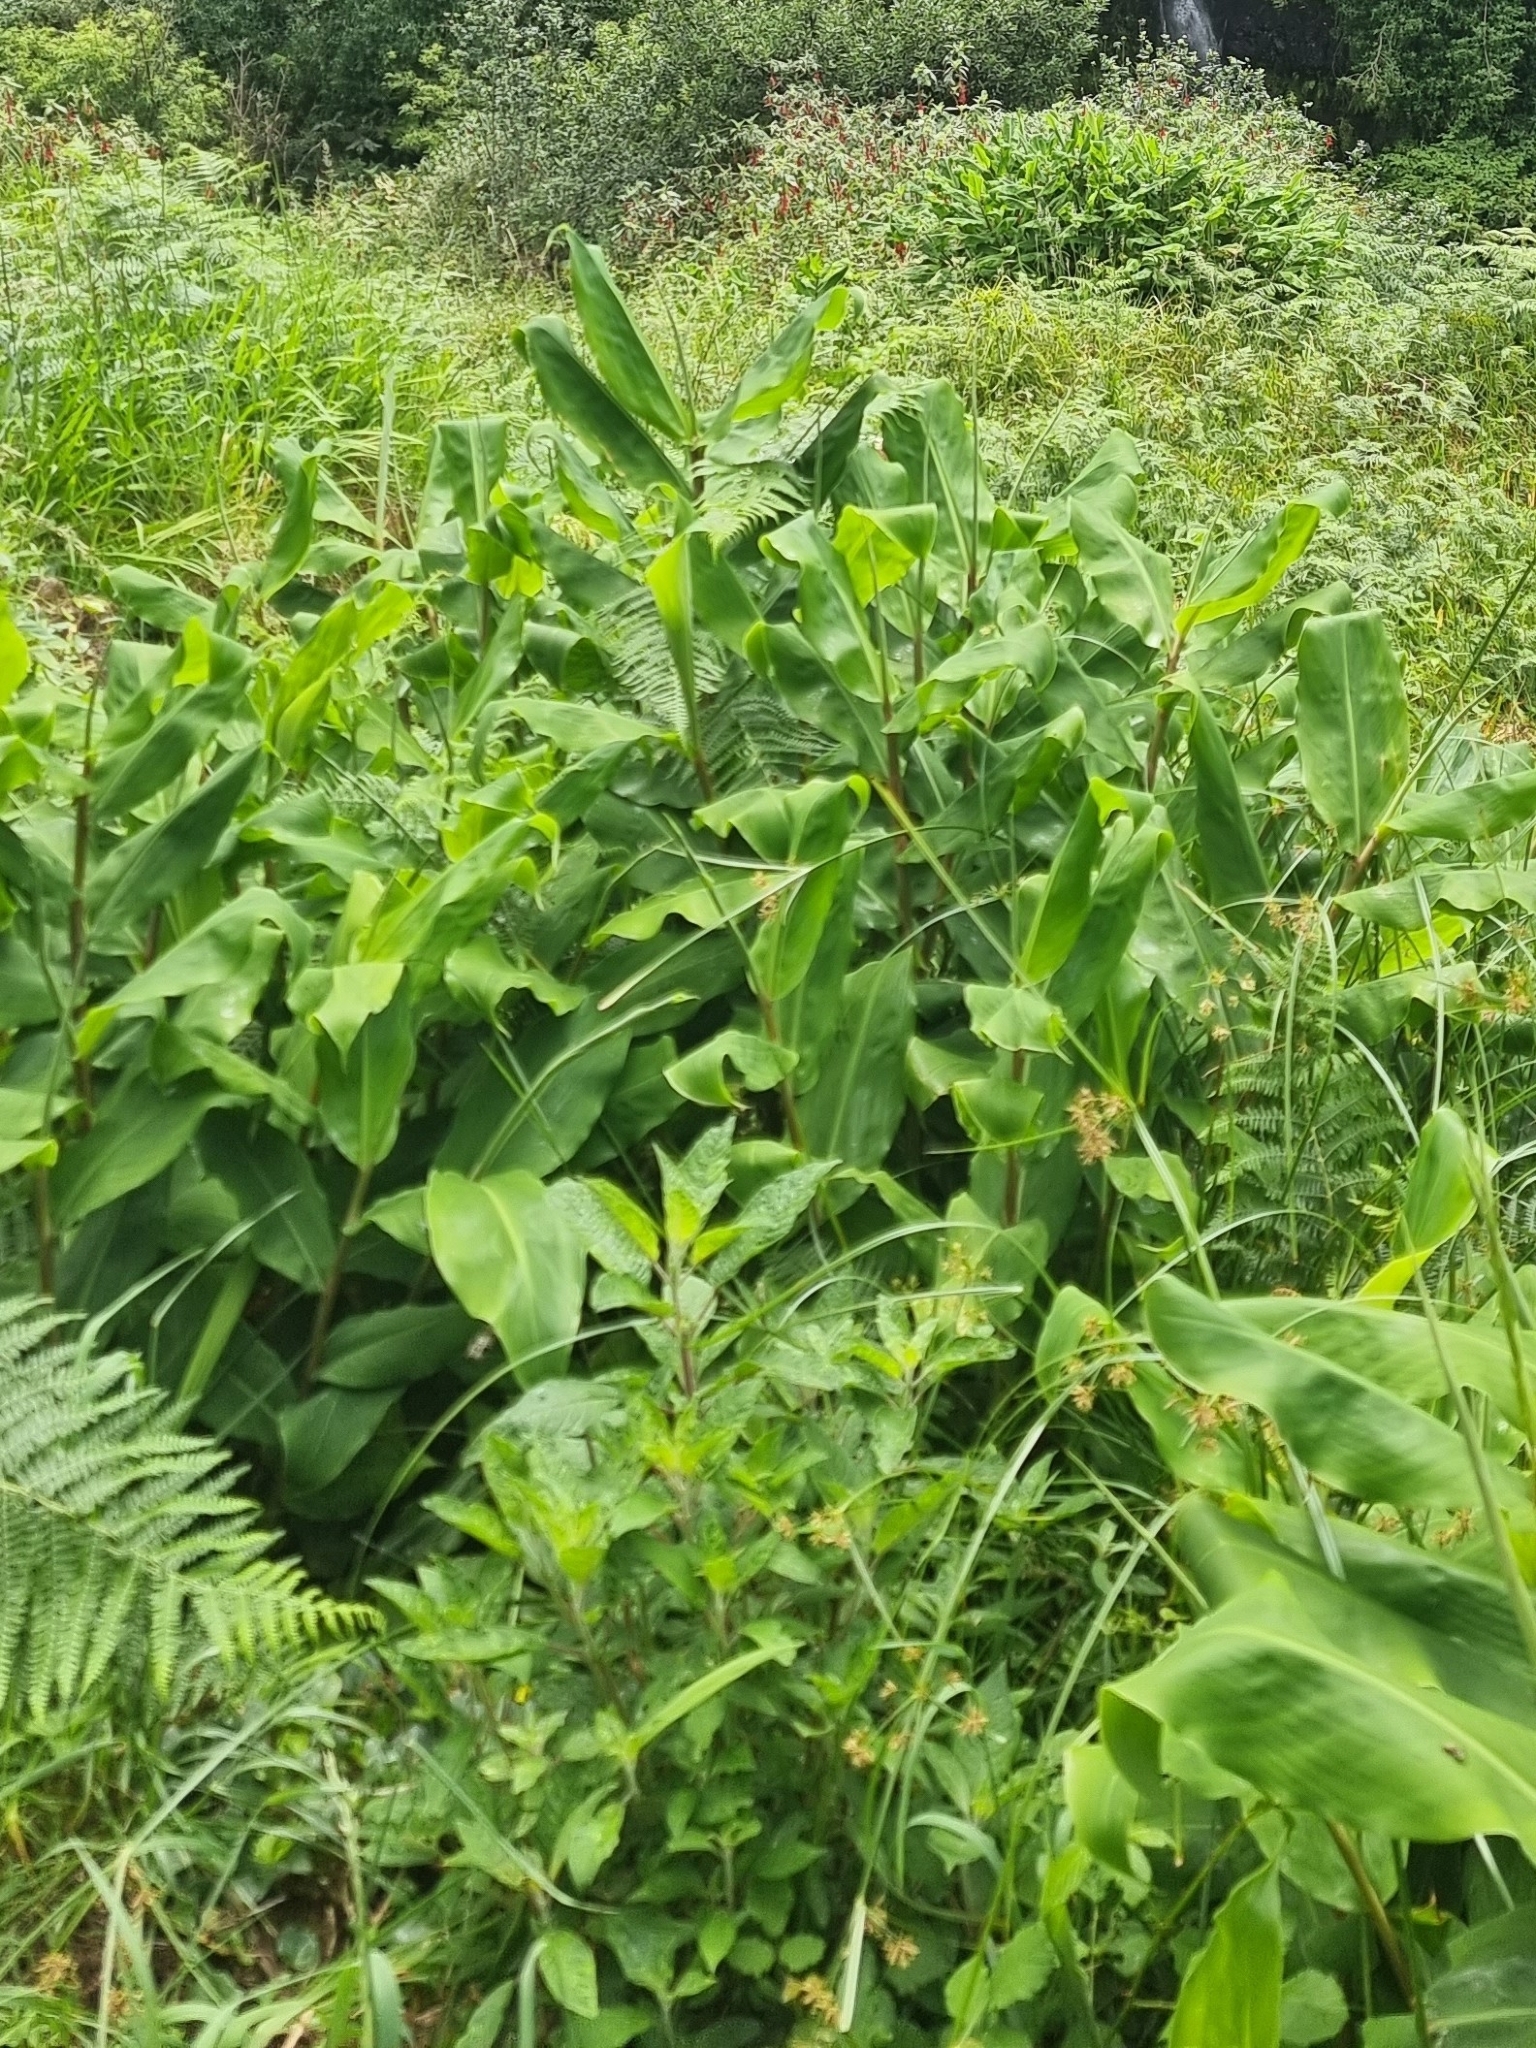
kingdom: Plantae
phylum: Tracheophyta
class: Liliopsida
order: Zingiberales
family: Zingiberaceae
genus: Hedychium
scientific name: Hedychium gardnerianum
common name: Himalayan ginger
